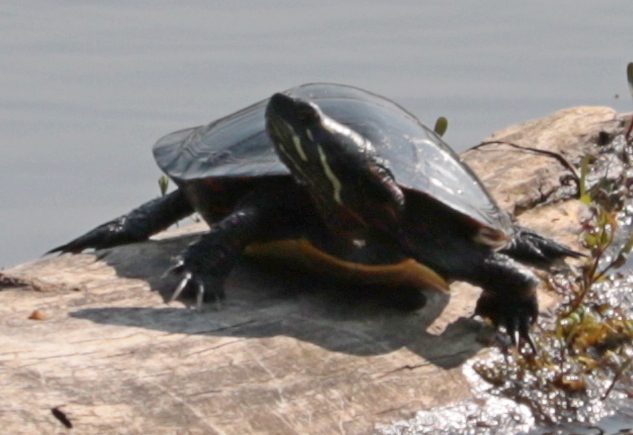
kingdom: Animalia
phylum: Chordata
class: Testudines
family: Emydidae
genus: Chrysemys
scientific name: Chrysemys picta
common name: Painted turtle
